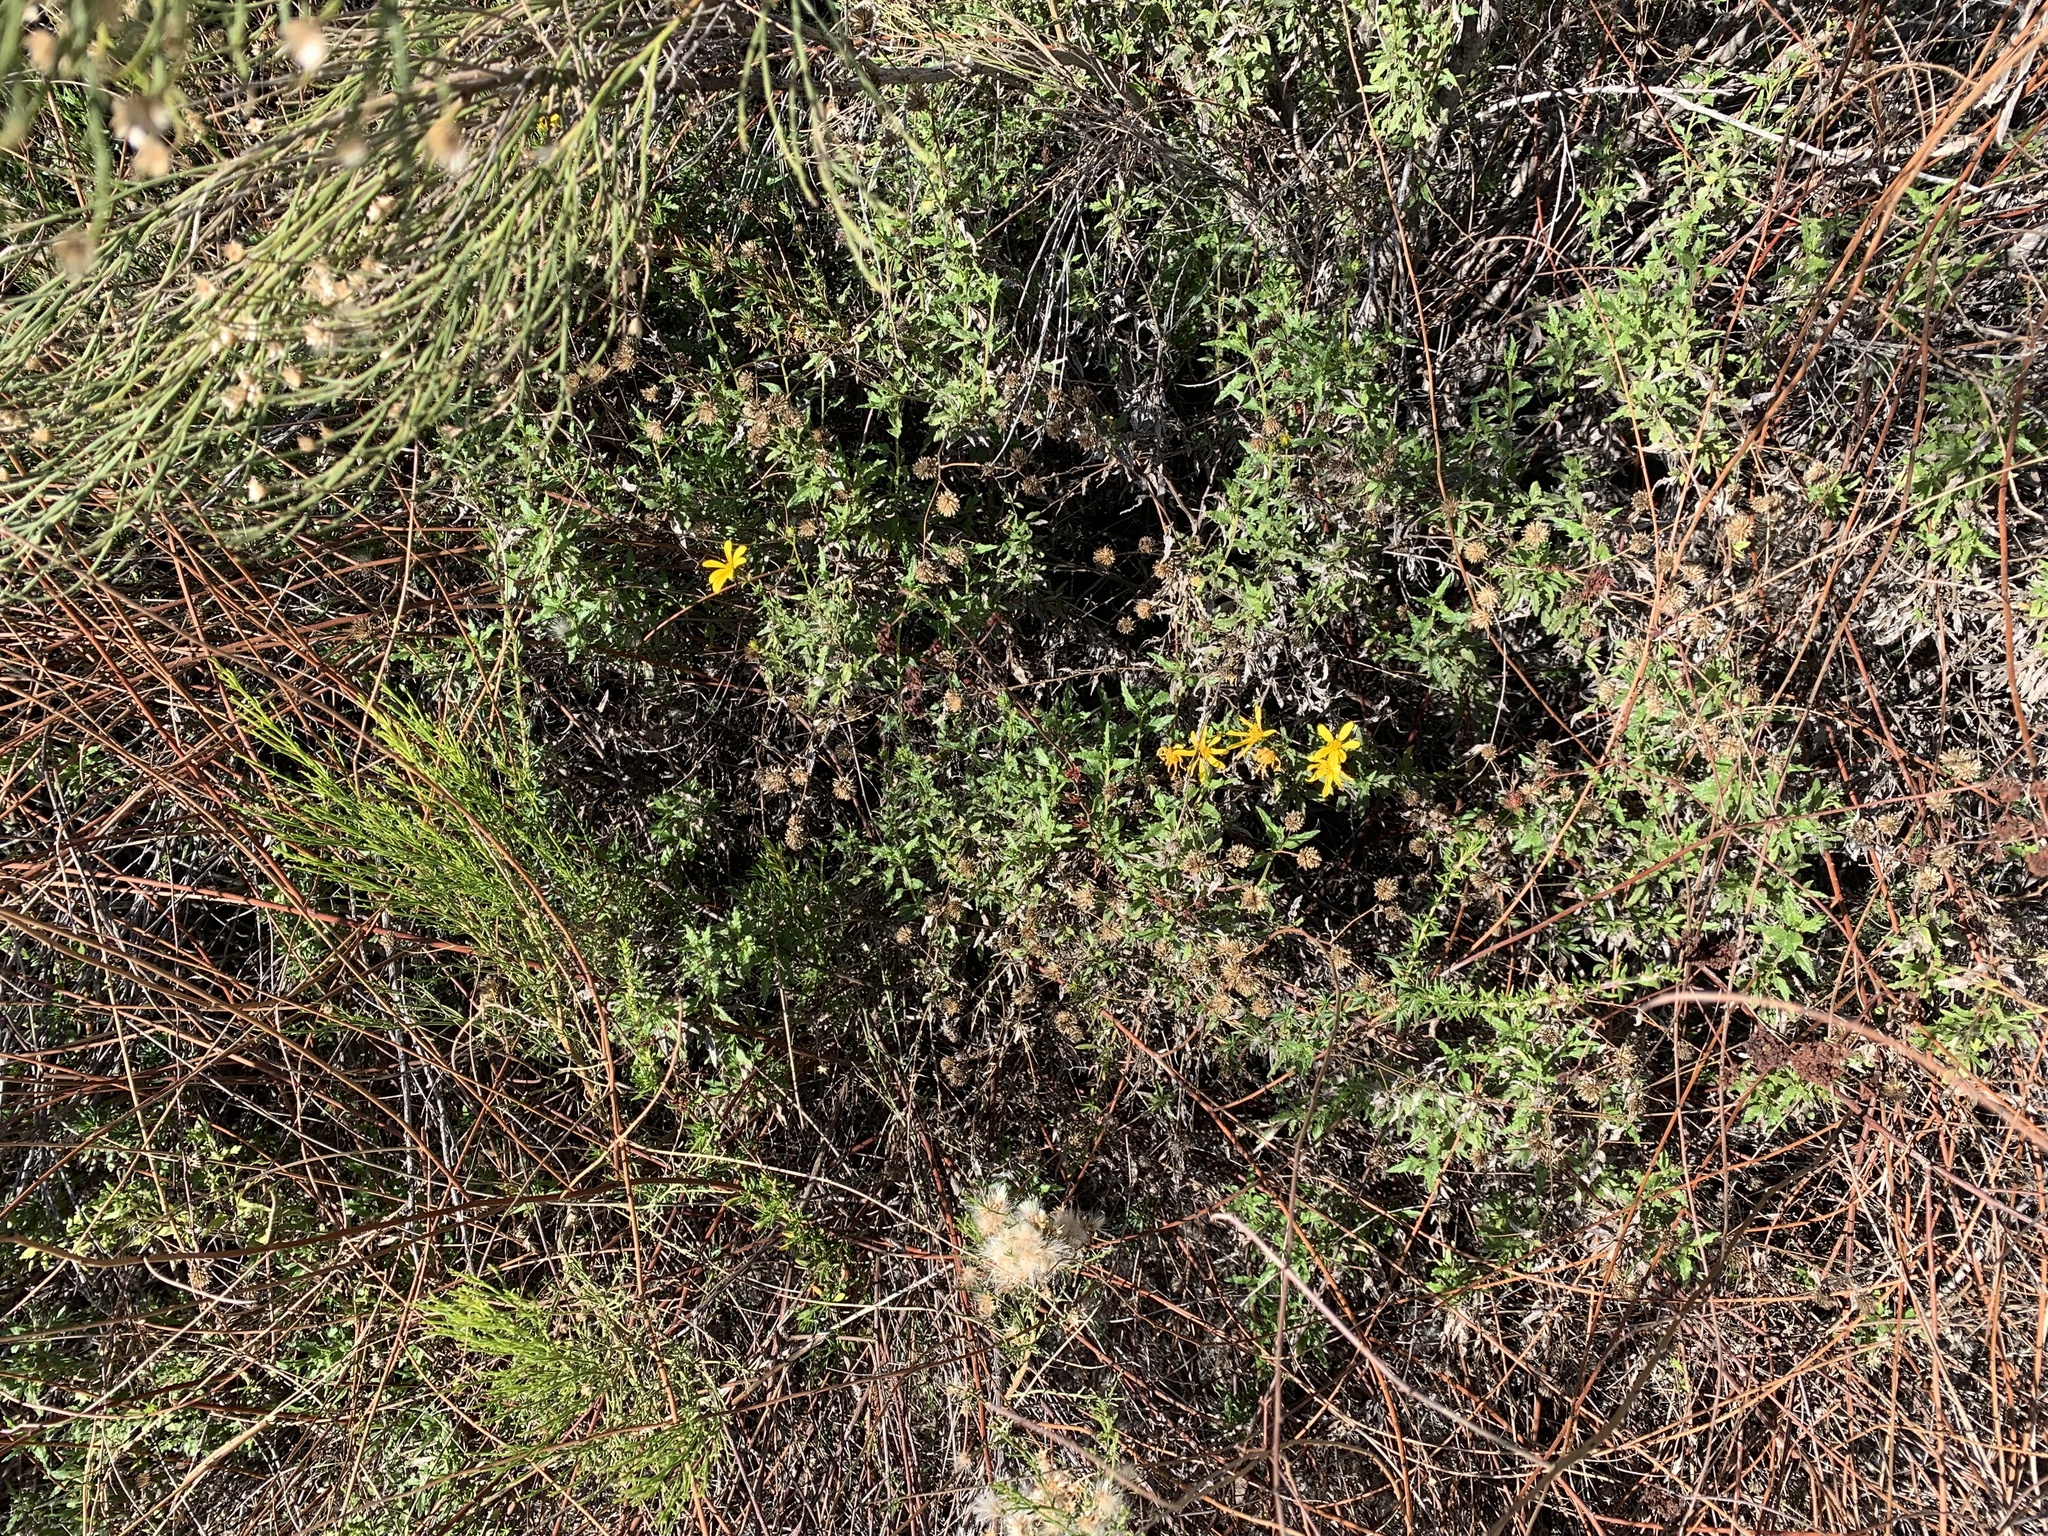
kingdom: Plantae
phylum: Tracheophyta
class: Magnoliopsida
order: Asterales
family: Asteraceae
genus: Bahiopsis
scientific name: Bahiopsis laciniata
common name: San diego county viguiera
